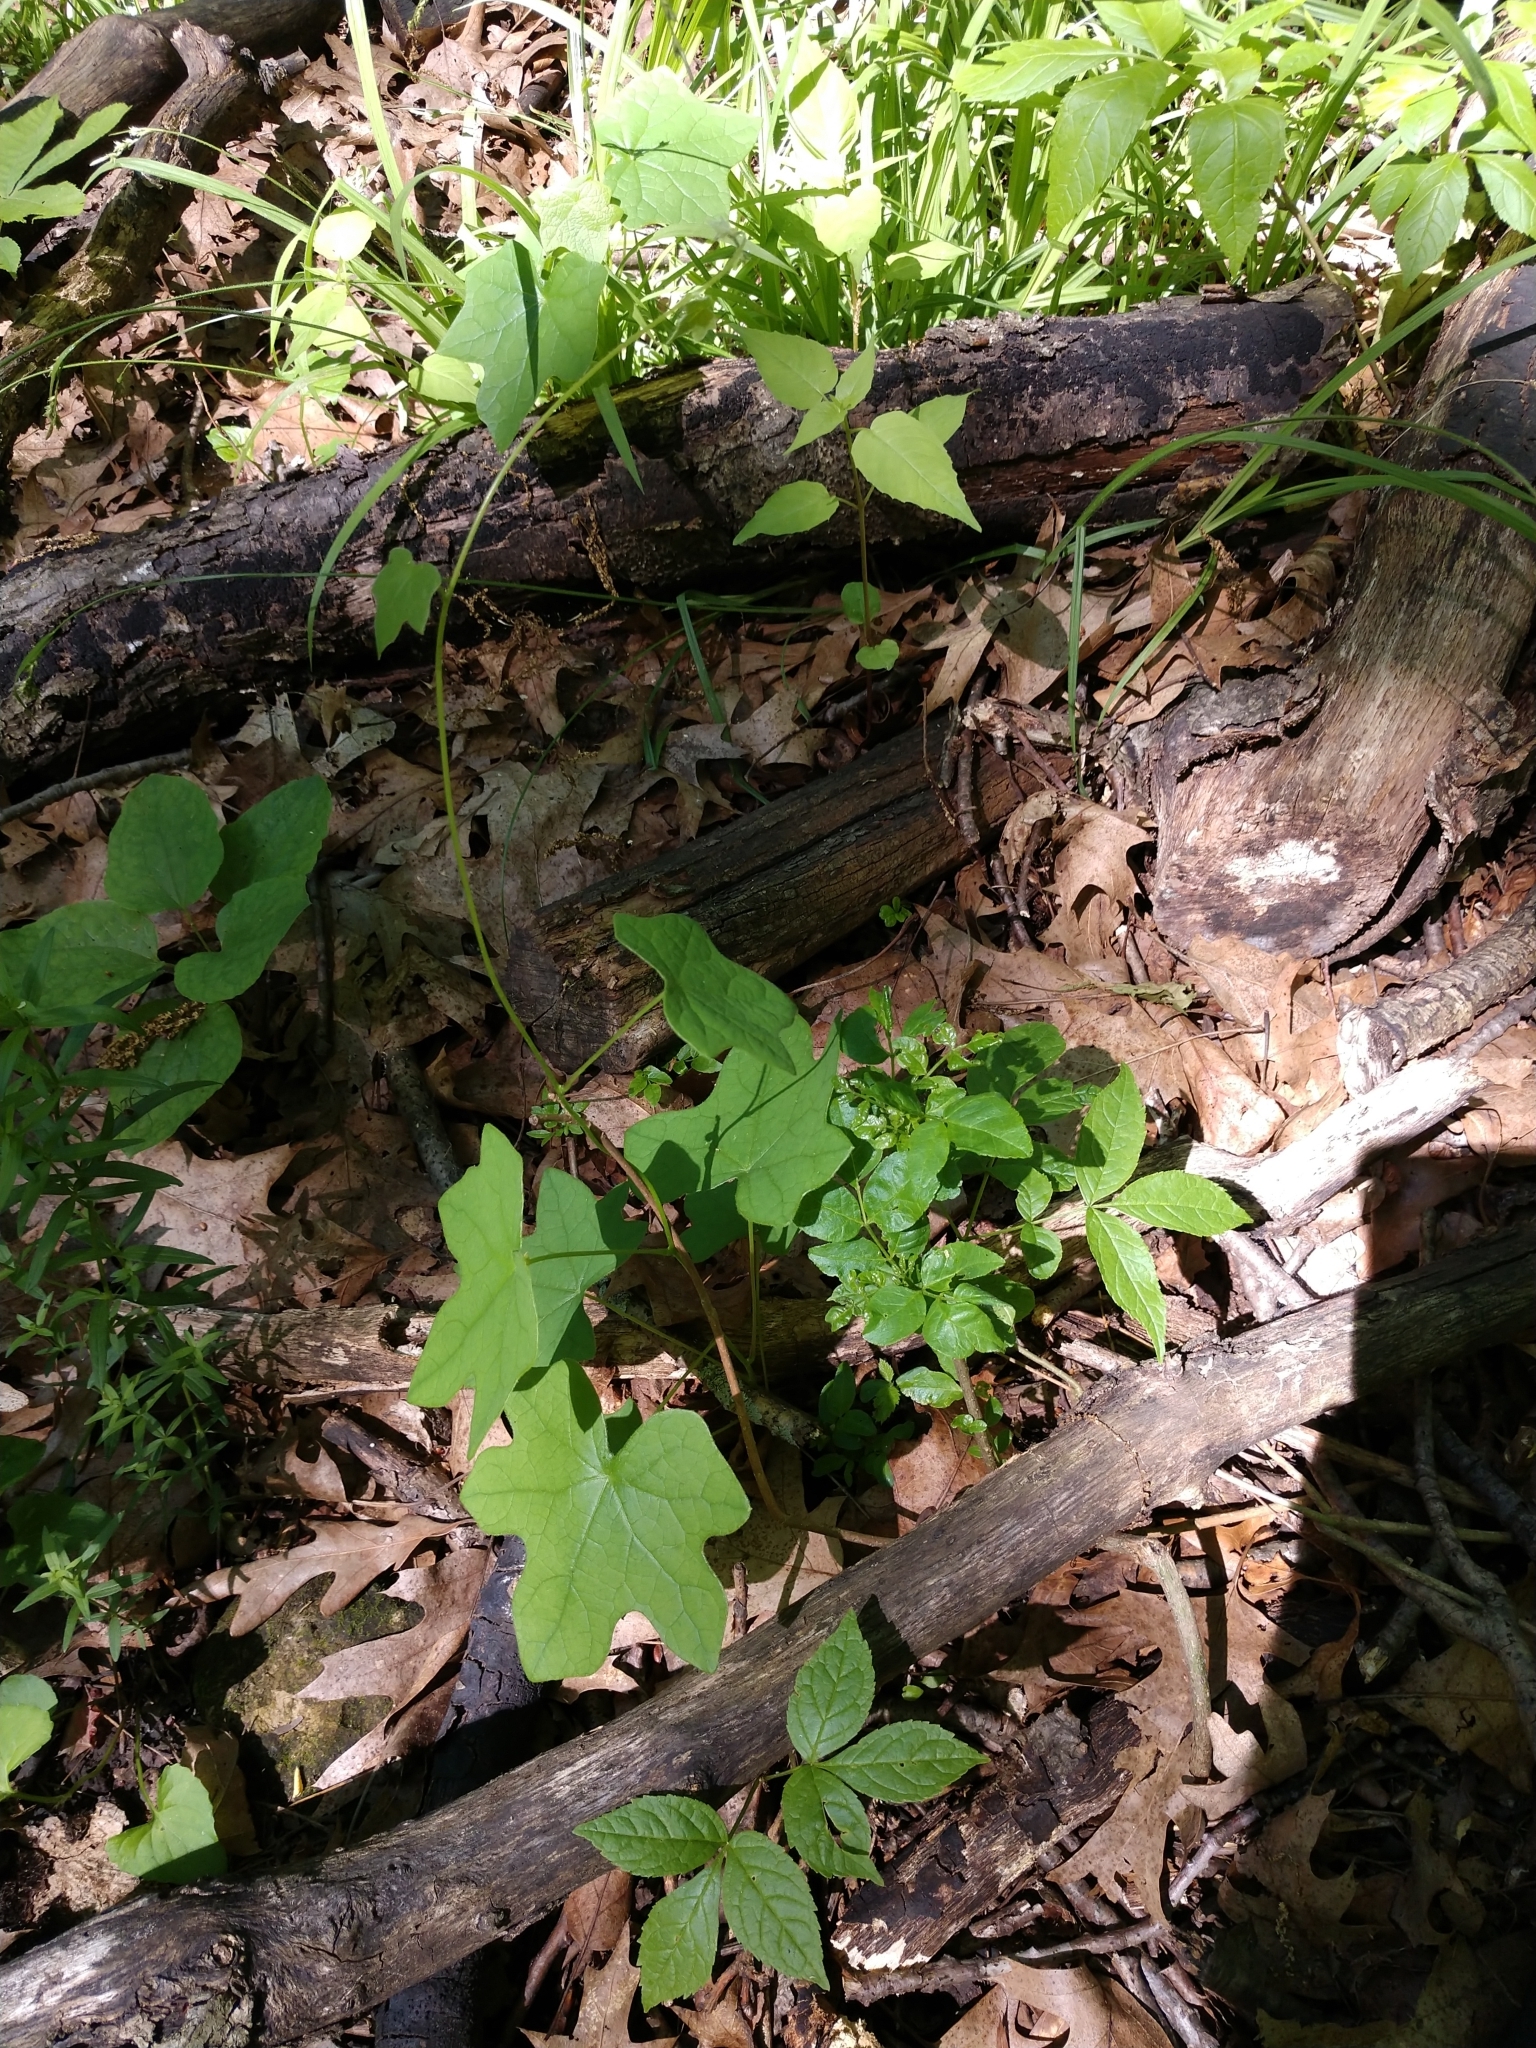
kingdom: Plantae
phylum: Tracheophyta
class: Magnoliopsida
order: Ranunculales
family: Menispermaceae
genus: Menispermum
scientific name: Menispermum canadense
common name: Moonseed
